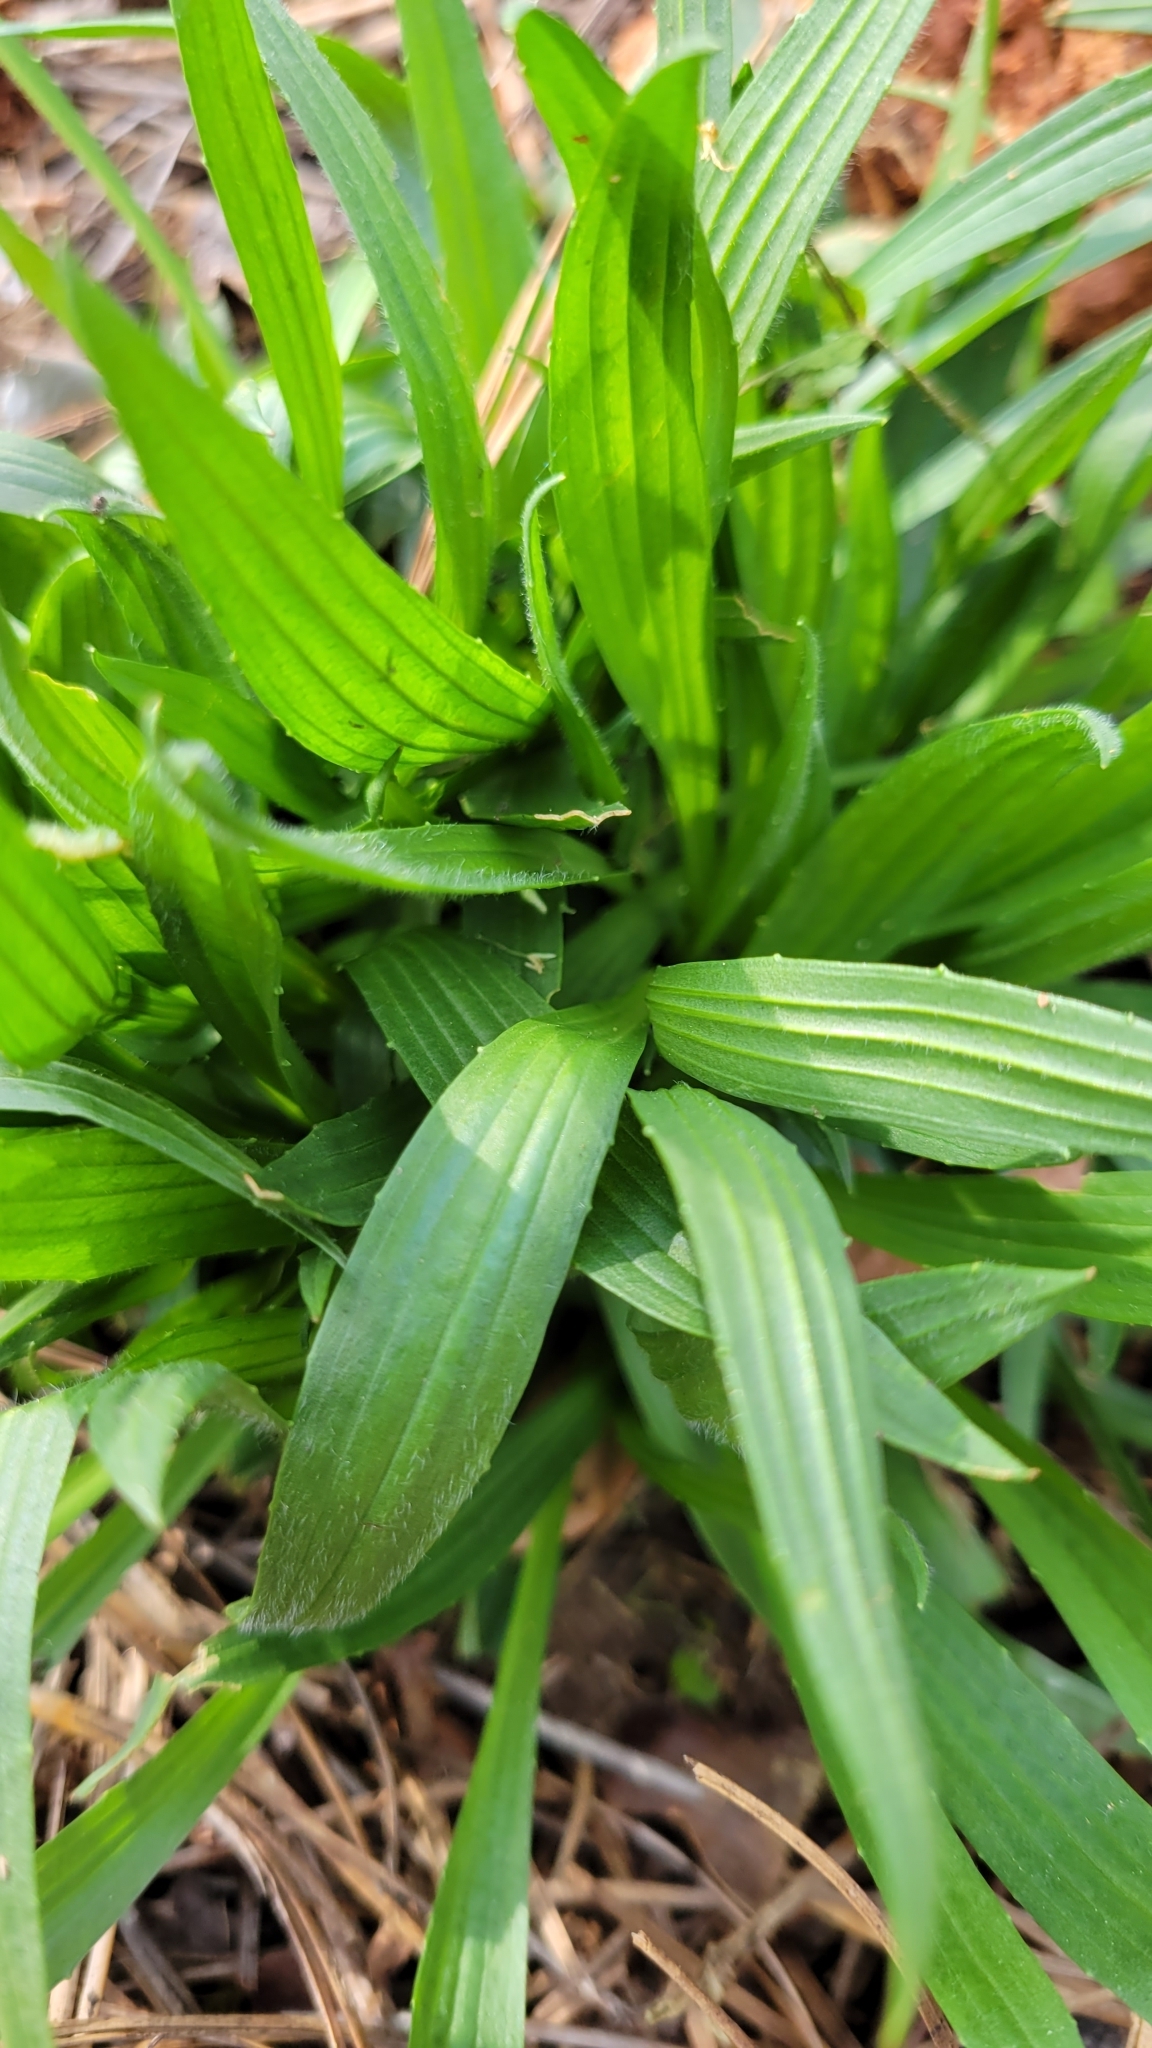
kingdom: Plantae
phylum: Tracheophyta
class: Magnoliopsida
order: Lamiales
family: Plantaginaceae
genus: Plantago
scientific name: Plantago lanceolata
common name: Ribwort plantain
